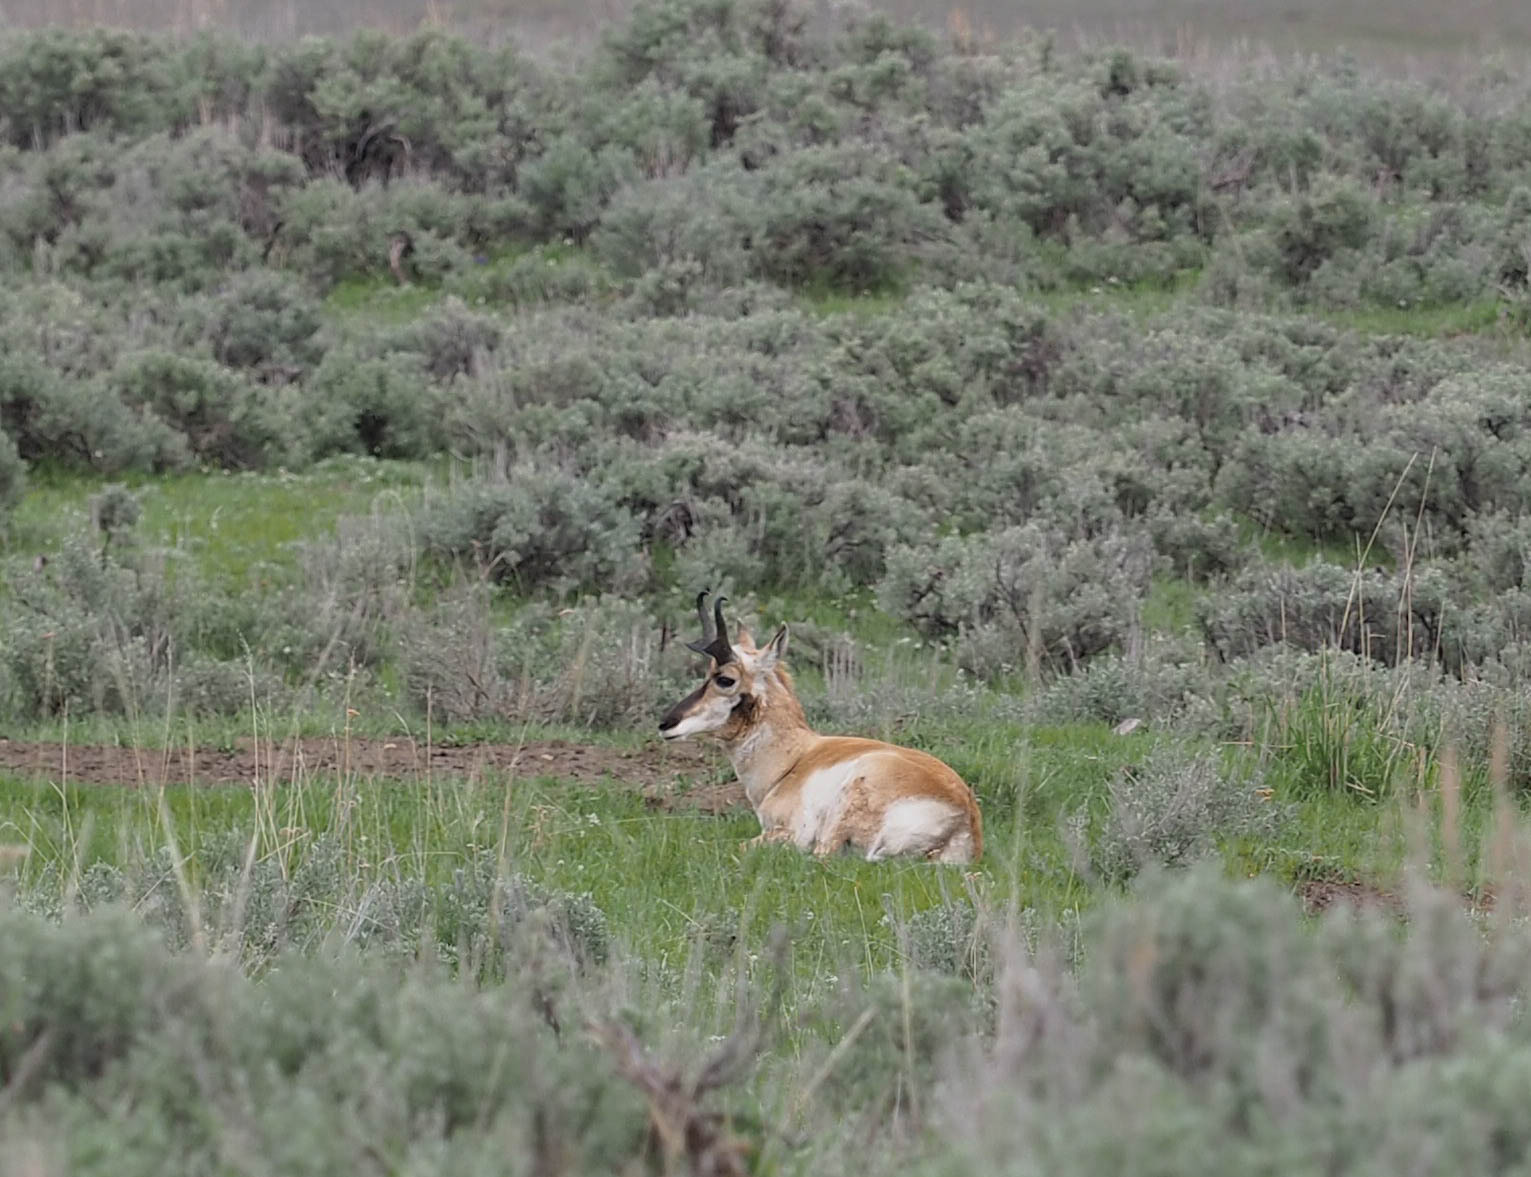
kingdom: Animalia
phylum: Chordata
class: Mammalia
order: Artiodactyla
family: Antilocapridae
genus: Antilocapra
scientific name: Antilocapra americana
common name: Pronghorn
